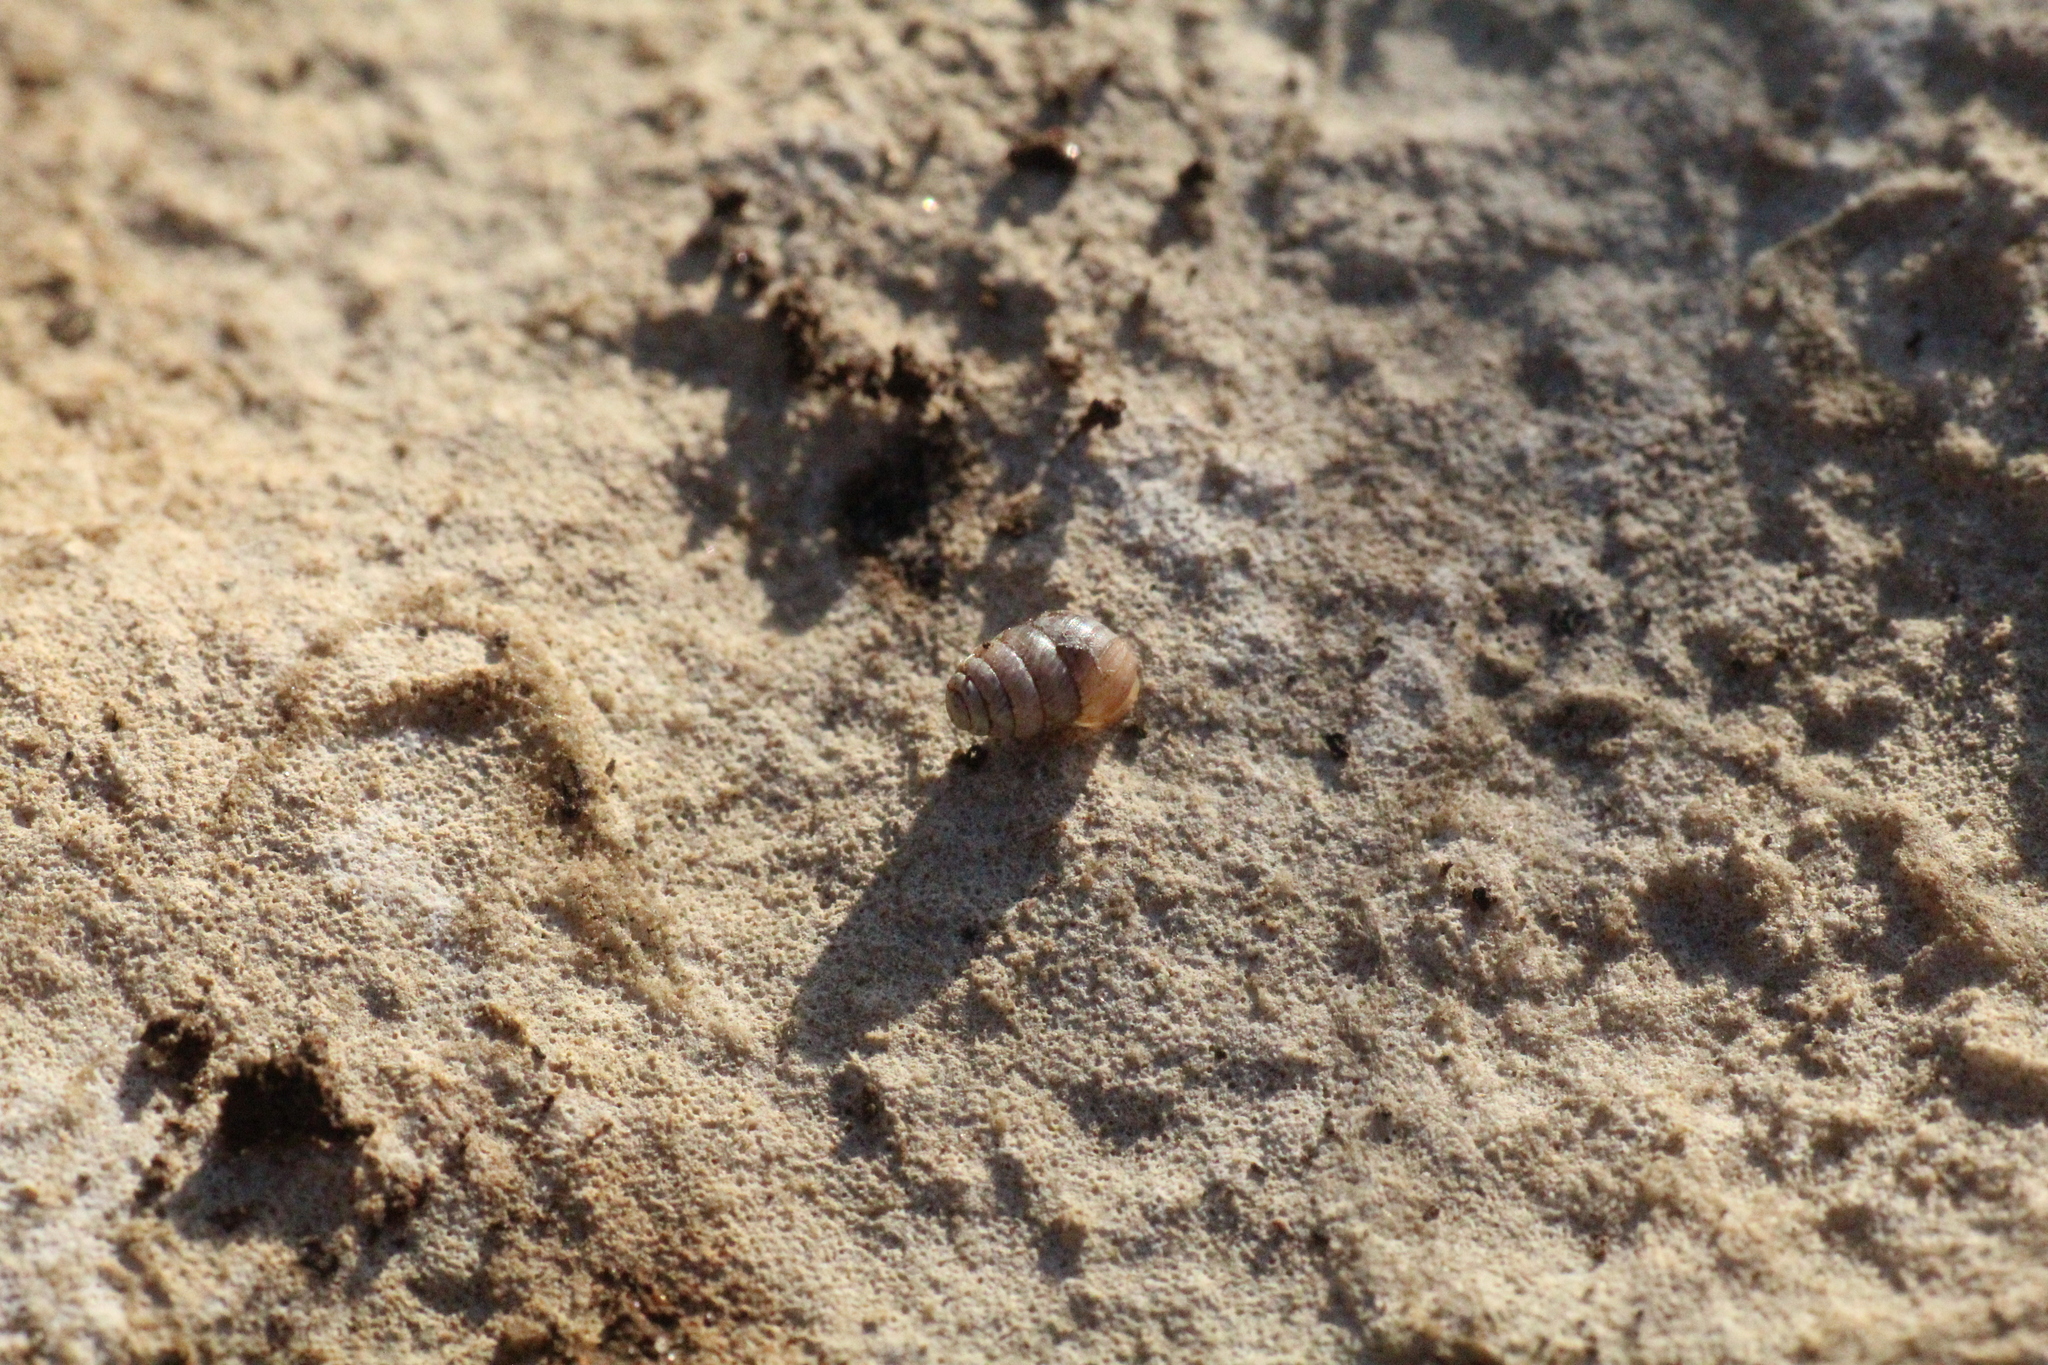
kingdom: Animalia
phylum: Mollusca
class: Gastropoda
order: Stylommatophora
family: Lauriidae
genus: Lauria
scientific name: Lauria cylindracea
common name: Common chrysalis snail
